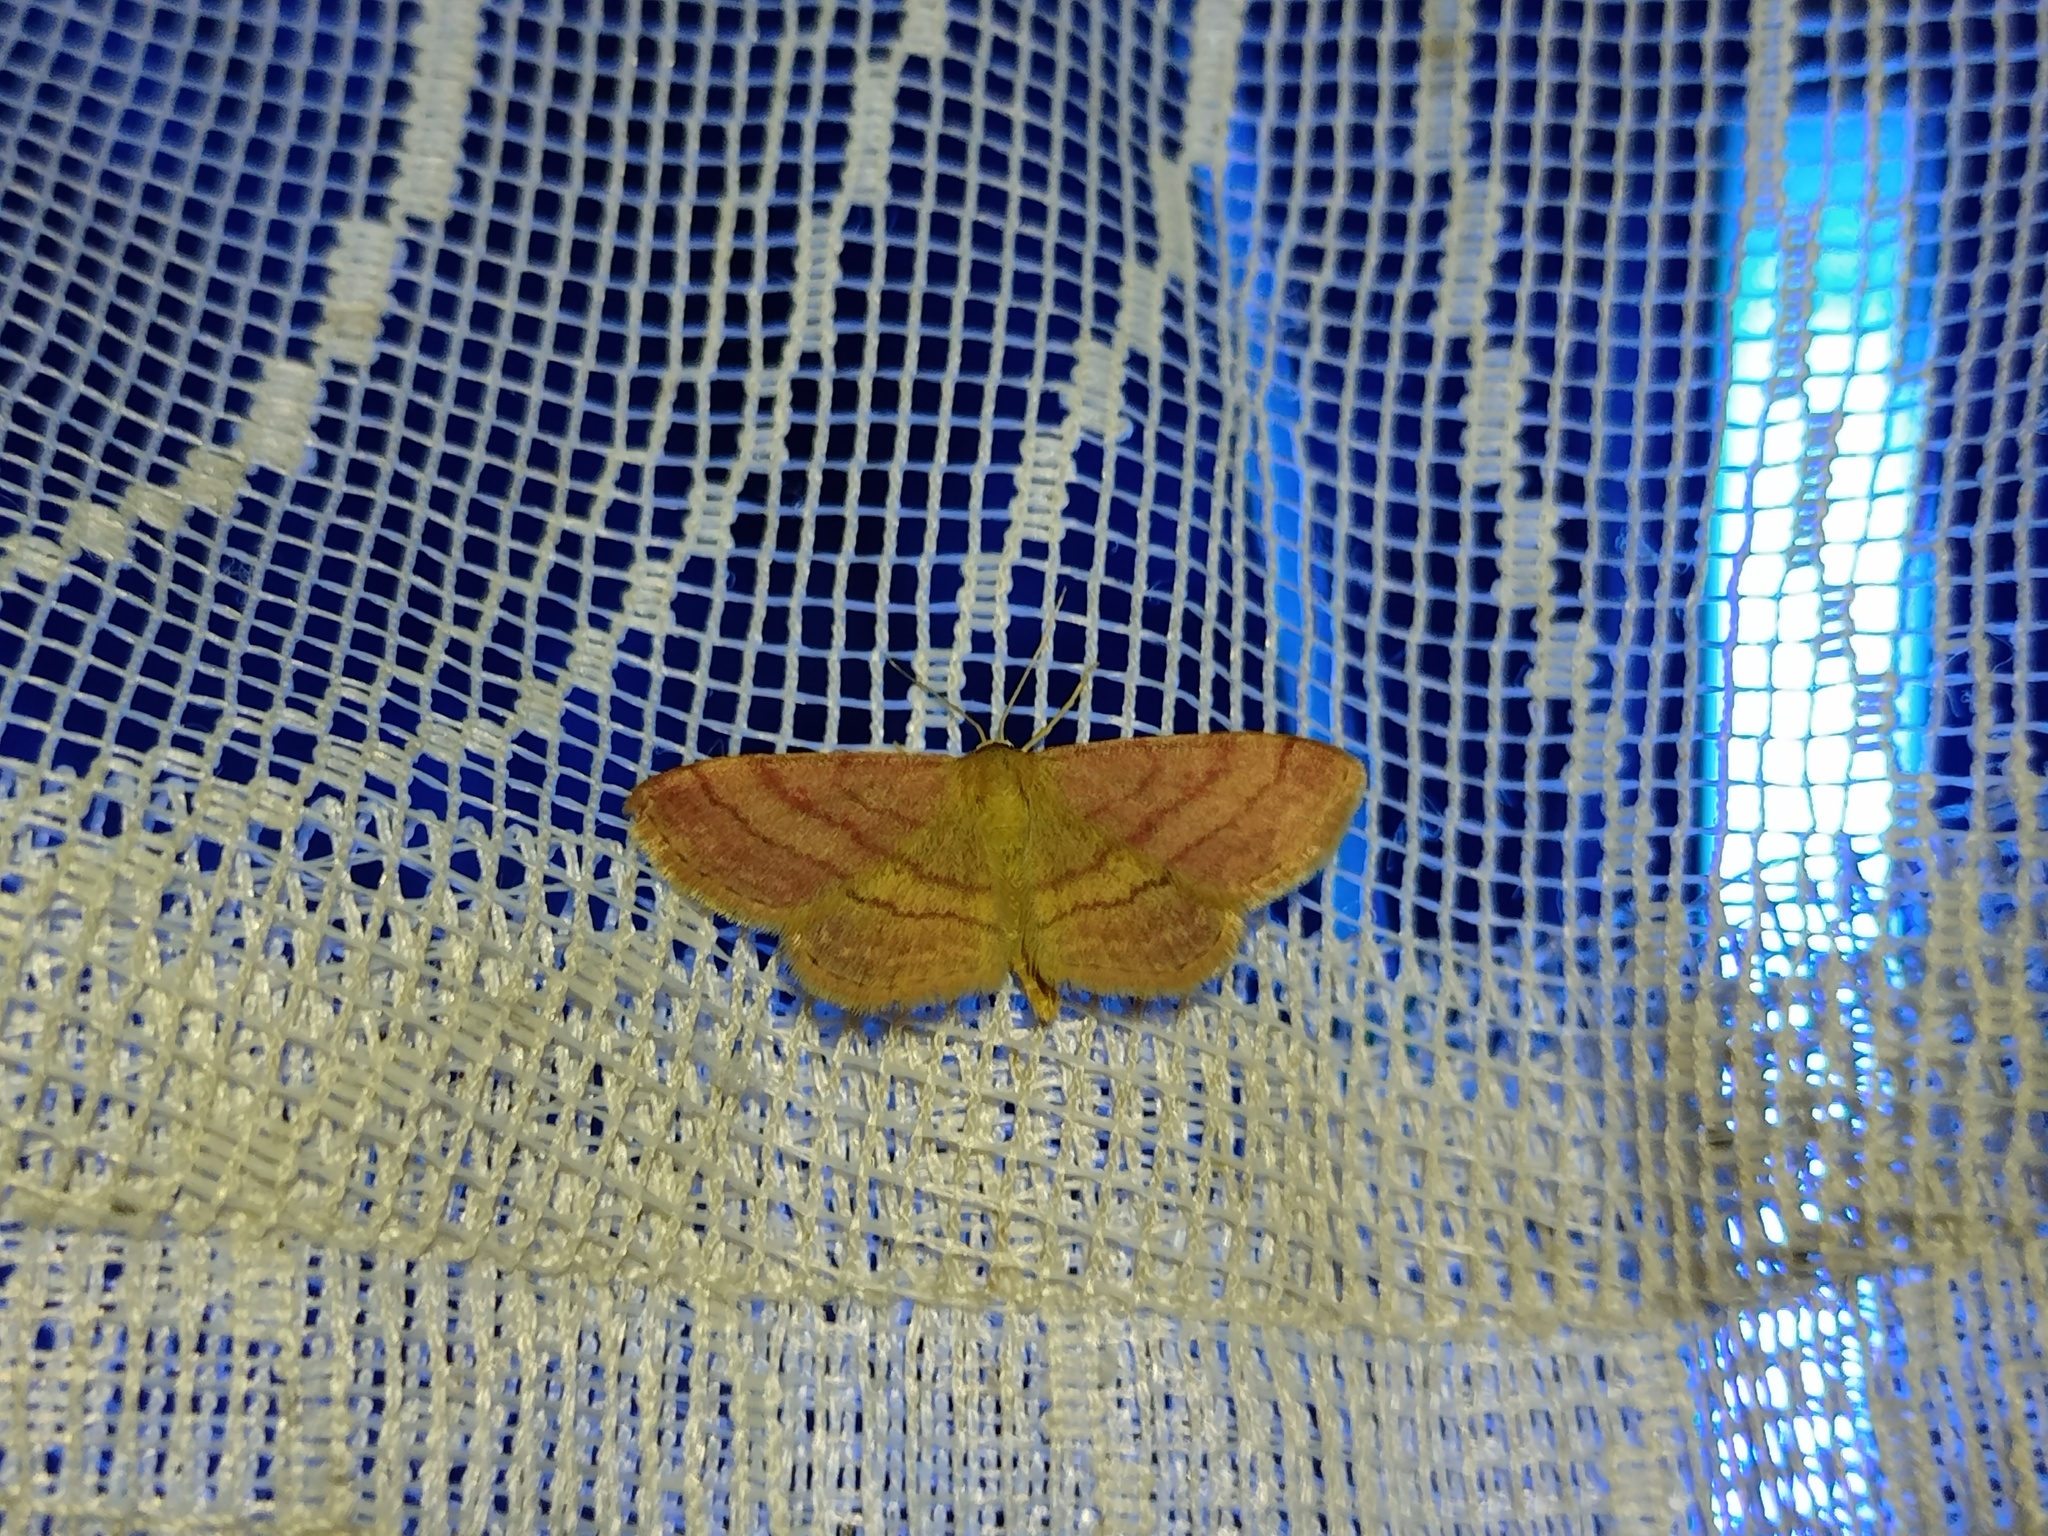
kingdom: Animalia
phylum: Arthropoda
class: Insecta
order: Lepidoptera
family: Geometridae
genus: Scopula
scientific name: Scopula rubiginata
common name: Tawny wave
